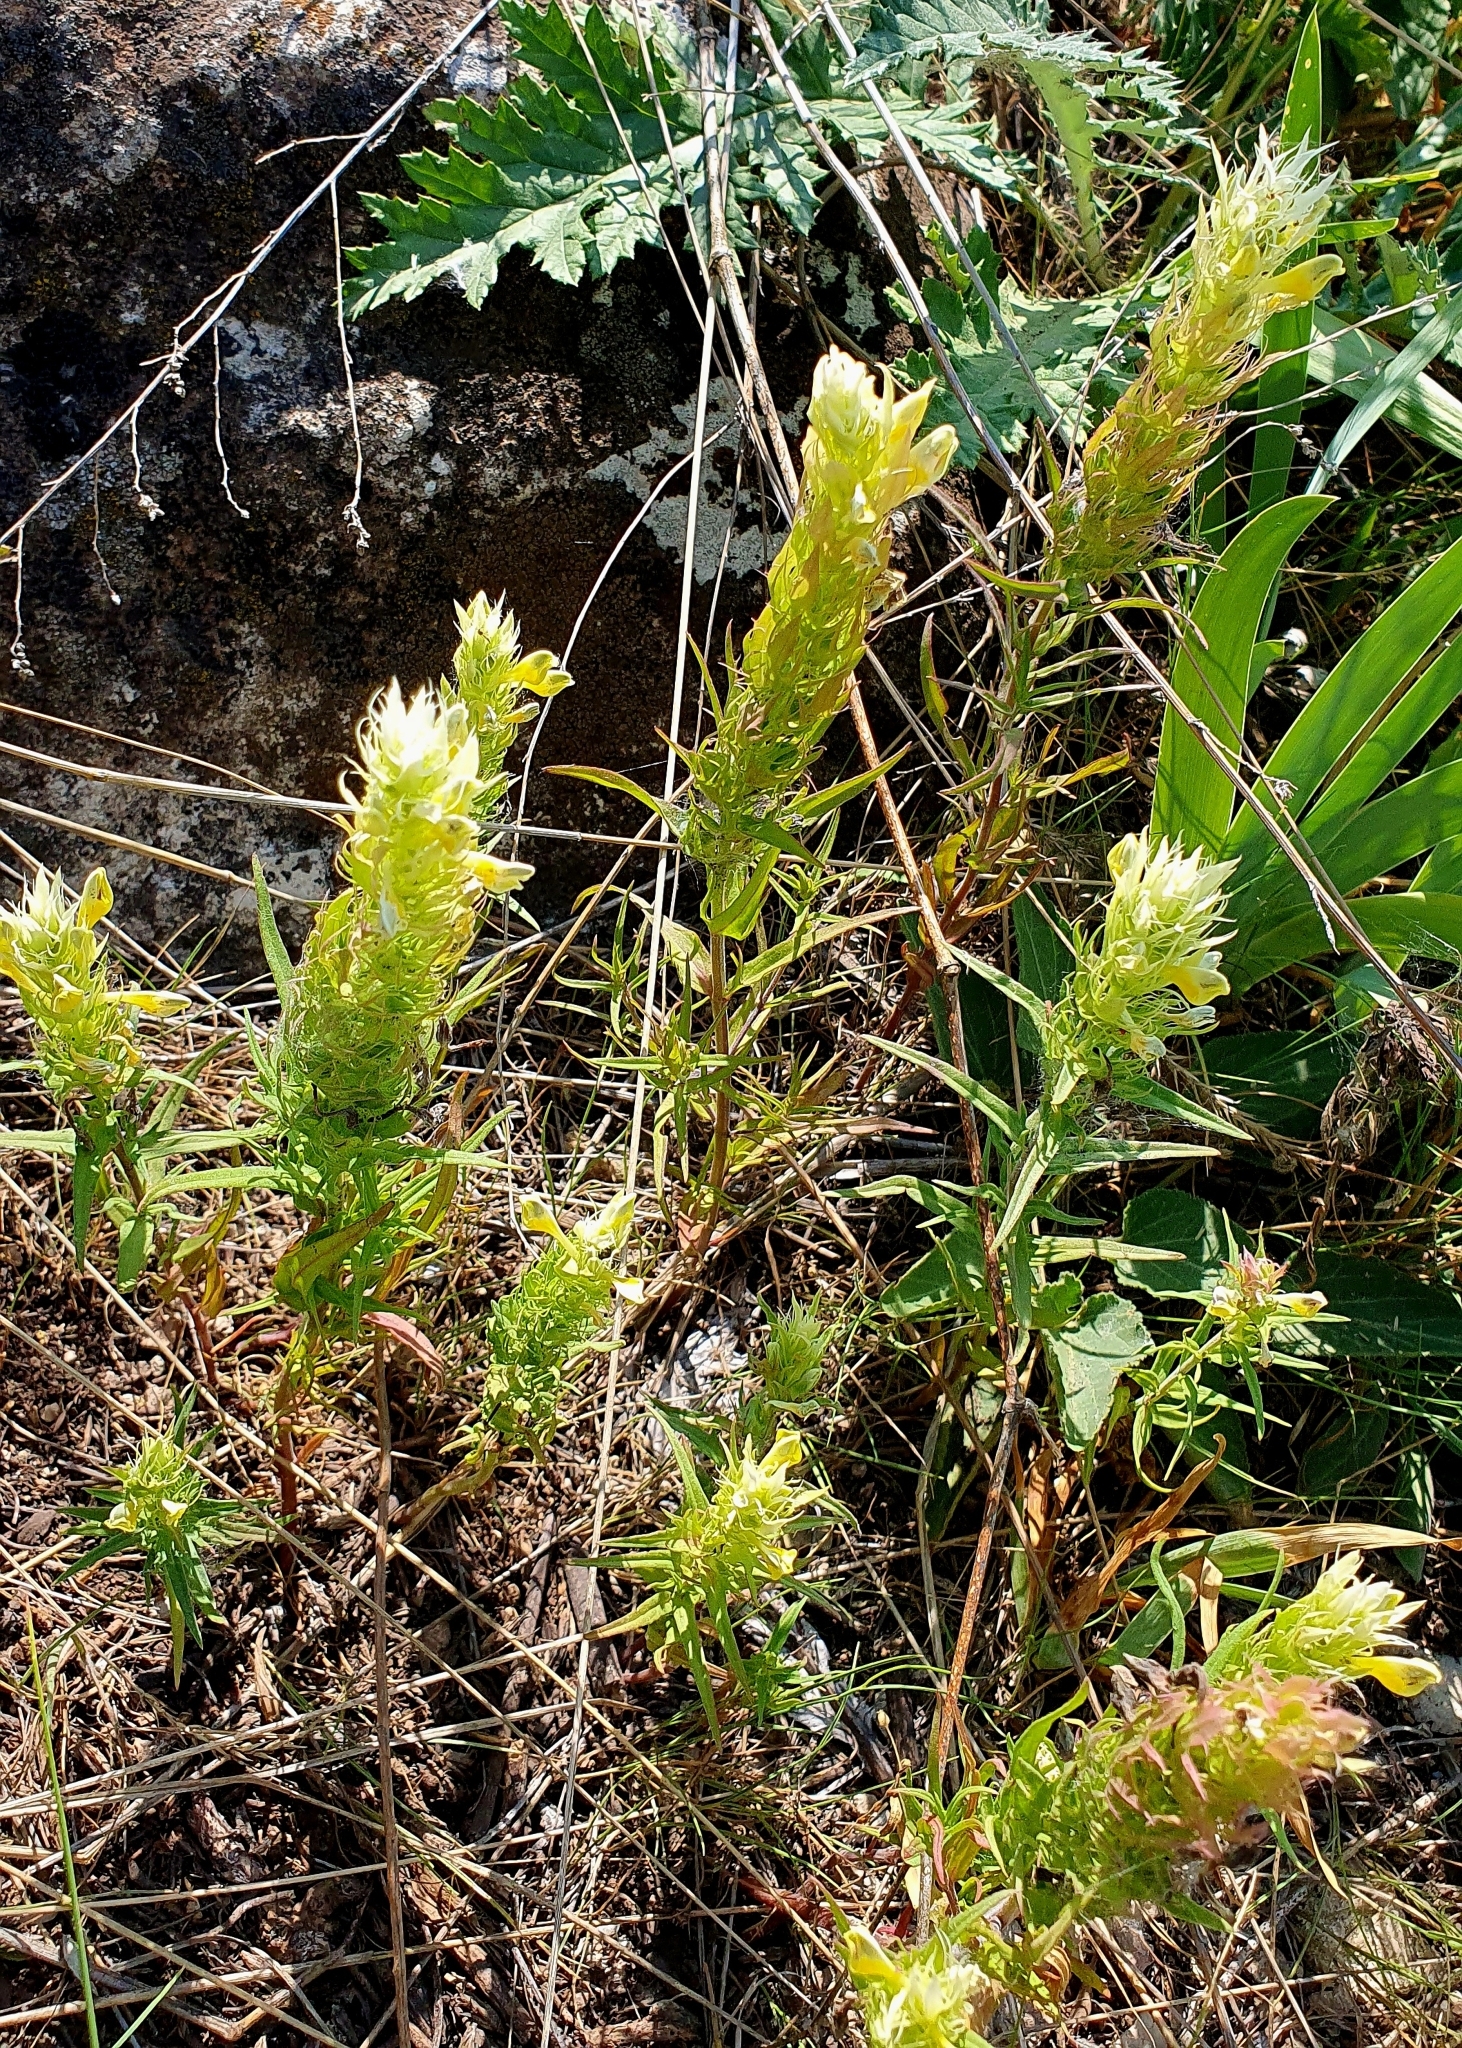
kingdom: Plantae
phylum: Tracheophyta
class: Magnoliopsida
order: Lamiales
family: Orobanchaceae
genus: Melampyrum
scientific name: Melampyrum arvense
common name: Field cow-wheat
